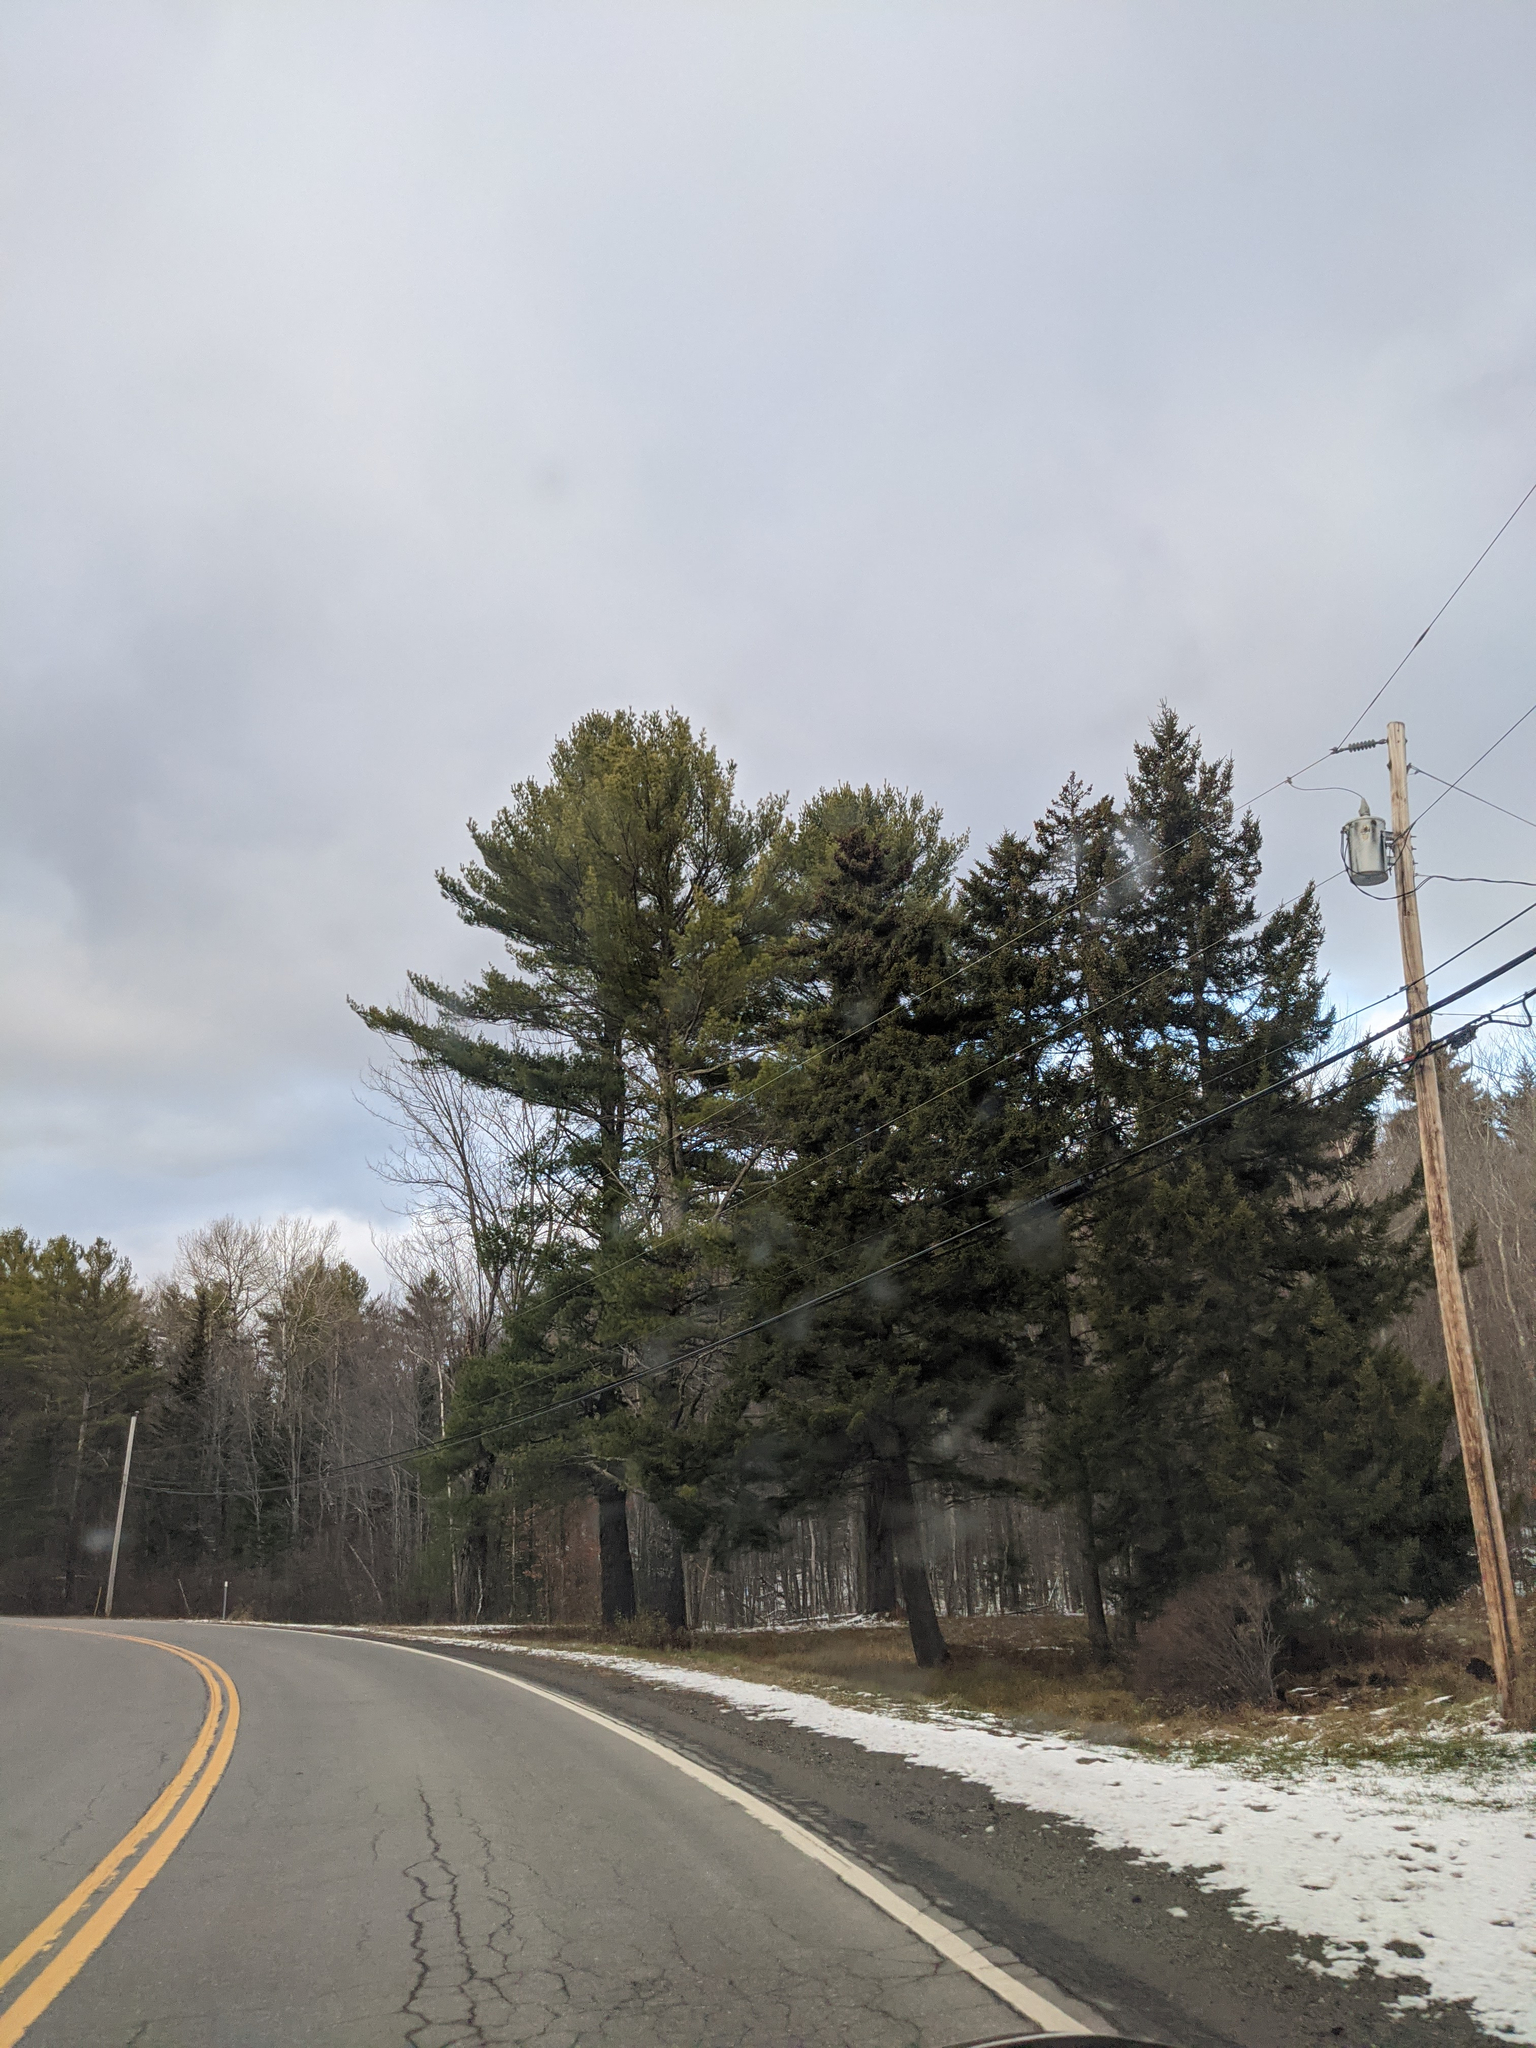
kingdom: Plantae
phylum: Tracheophyta
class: Pinopsida
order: Pinales
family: Pinaceae
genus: Pinus
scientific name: Pinus strobus
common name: Weymouth pine
